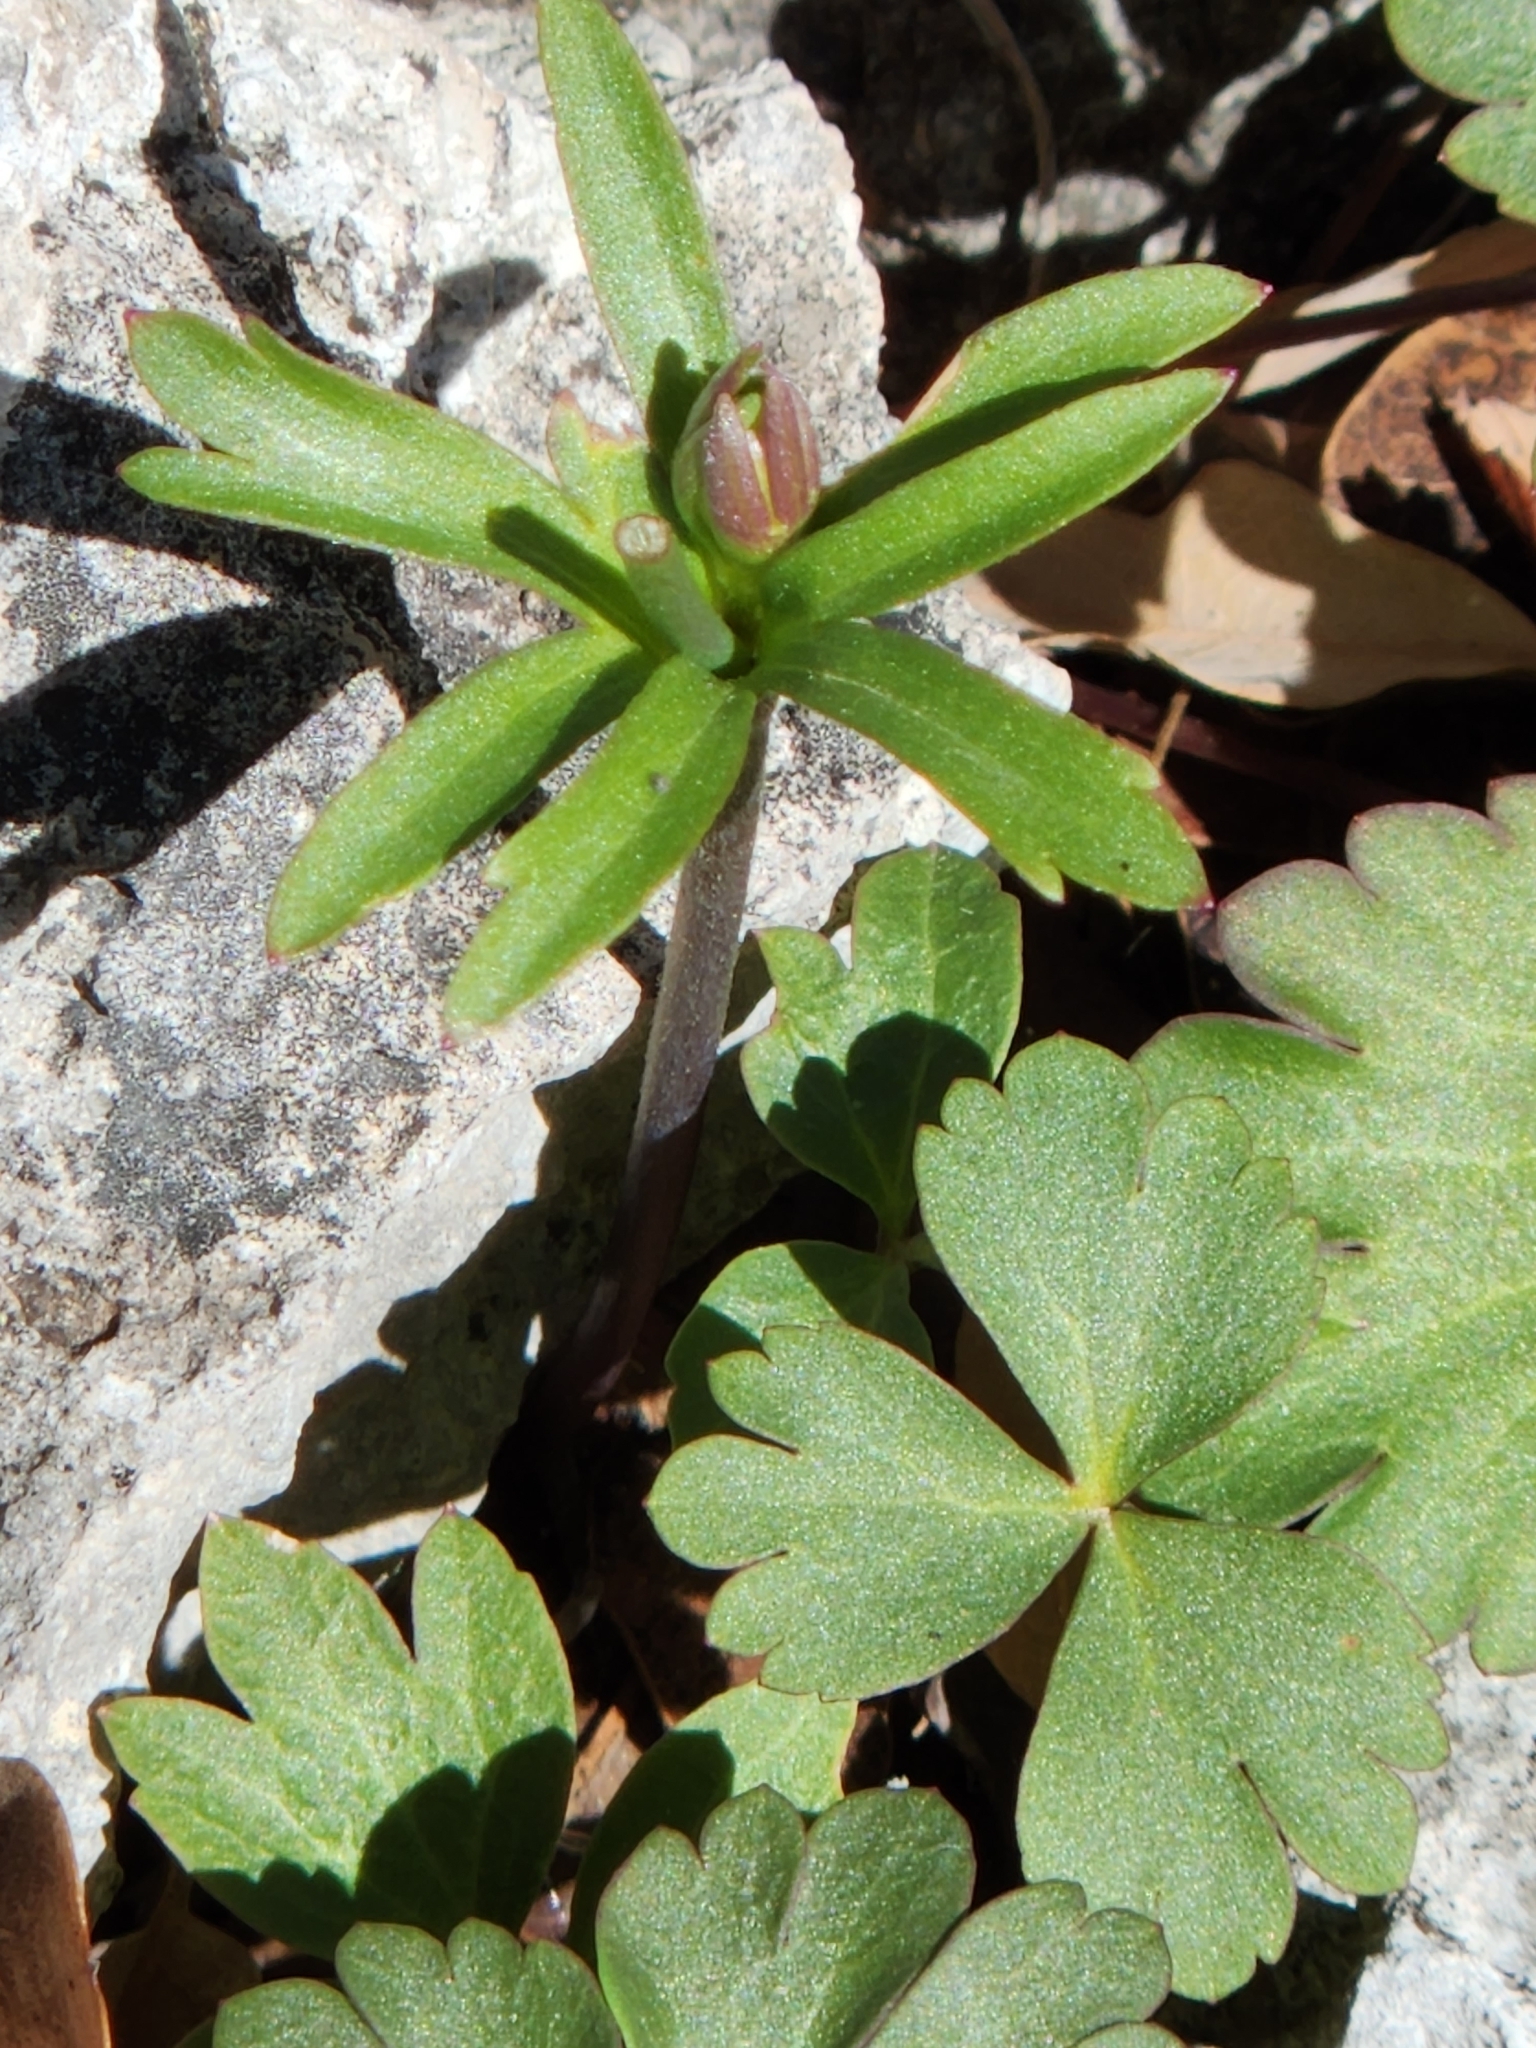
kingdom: Plantae
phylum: Tracheophyta
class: Magnoliopsida
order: Ranunculales
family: Ranunculaceae
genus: Anemone
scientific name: Anemone edwardsiana
